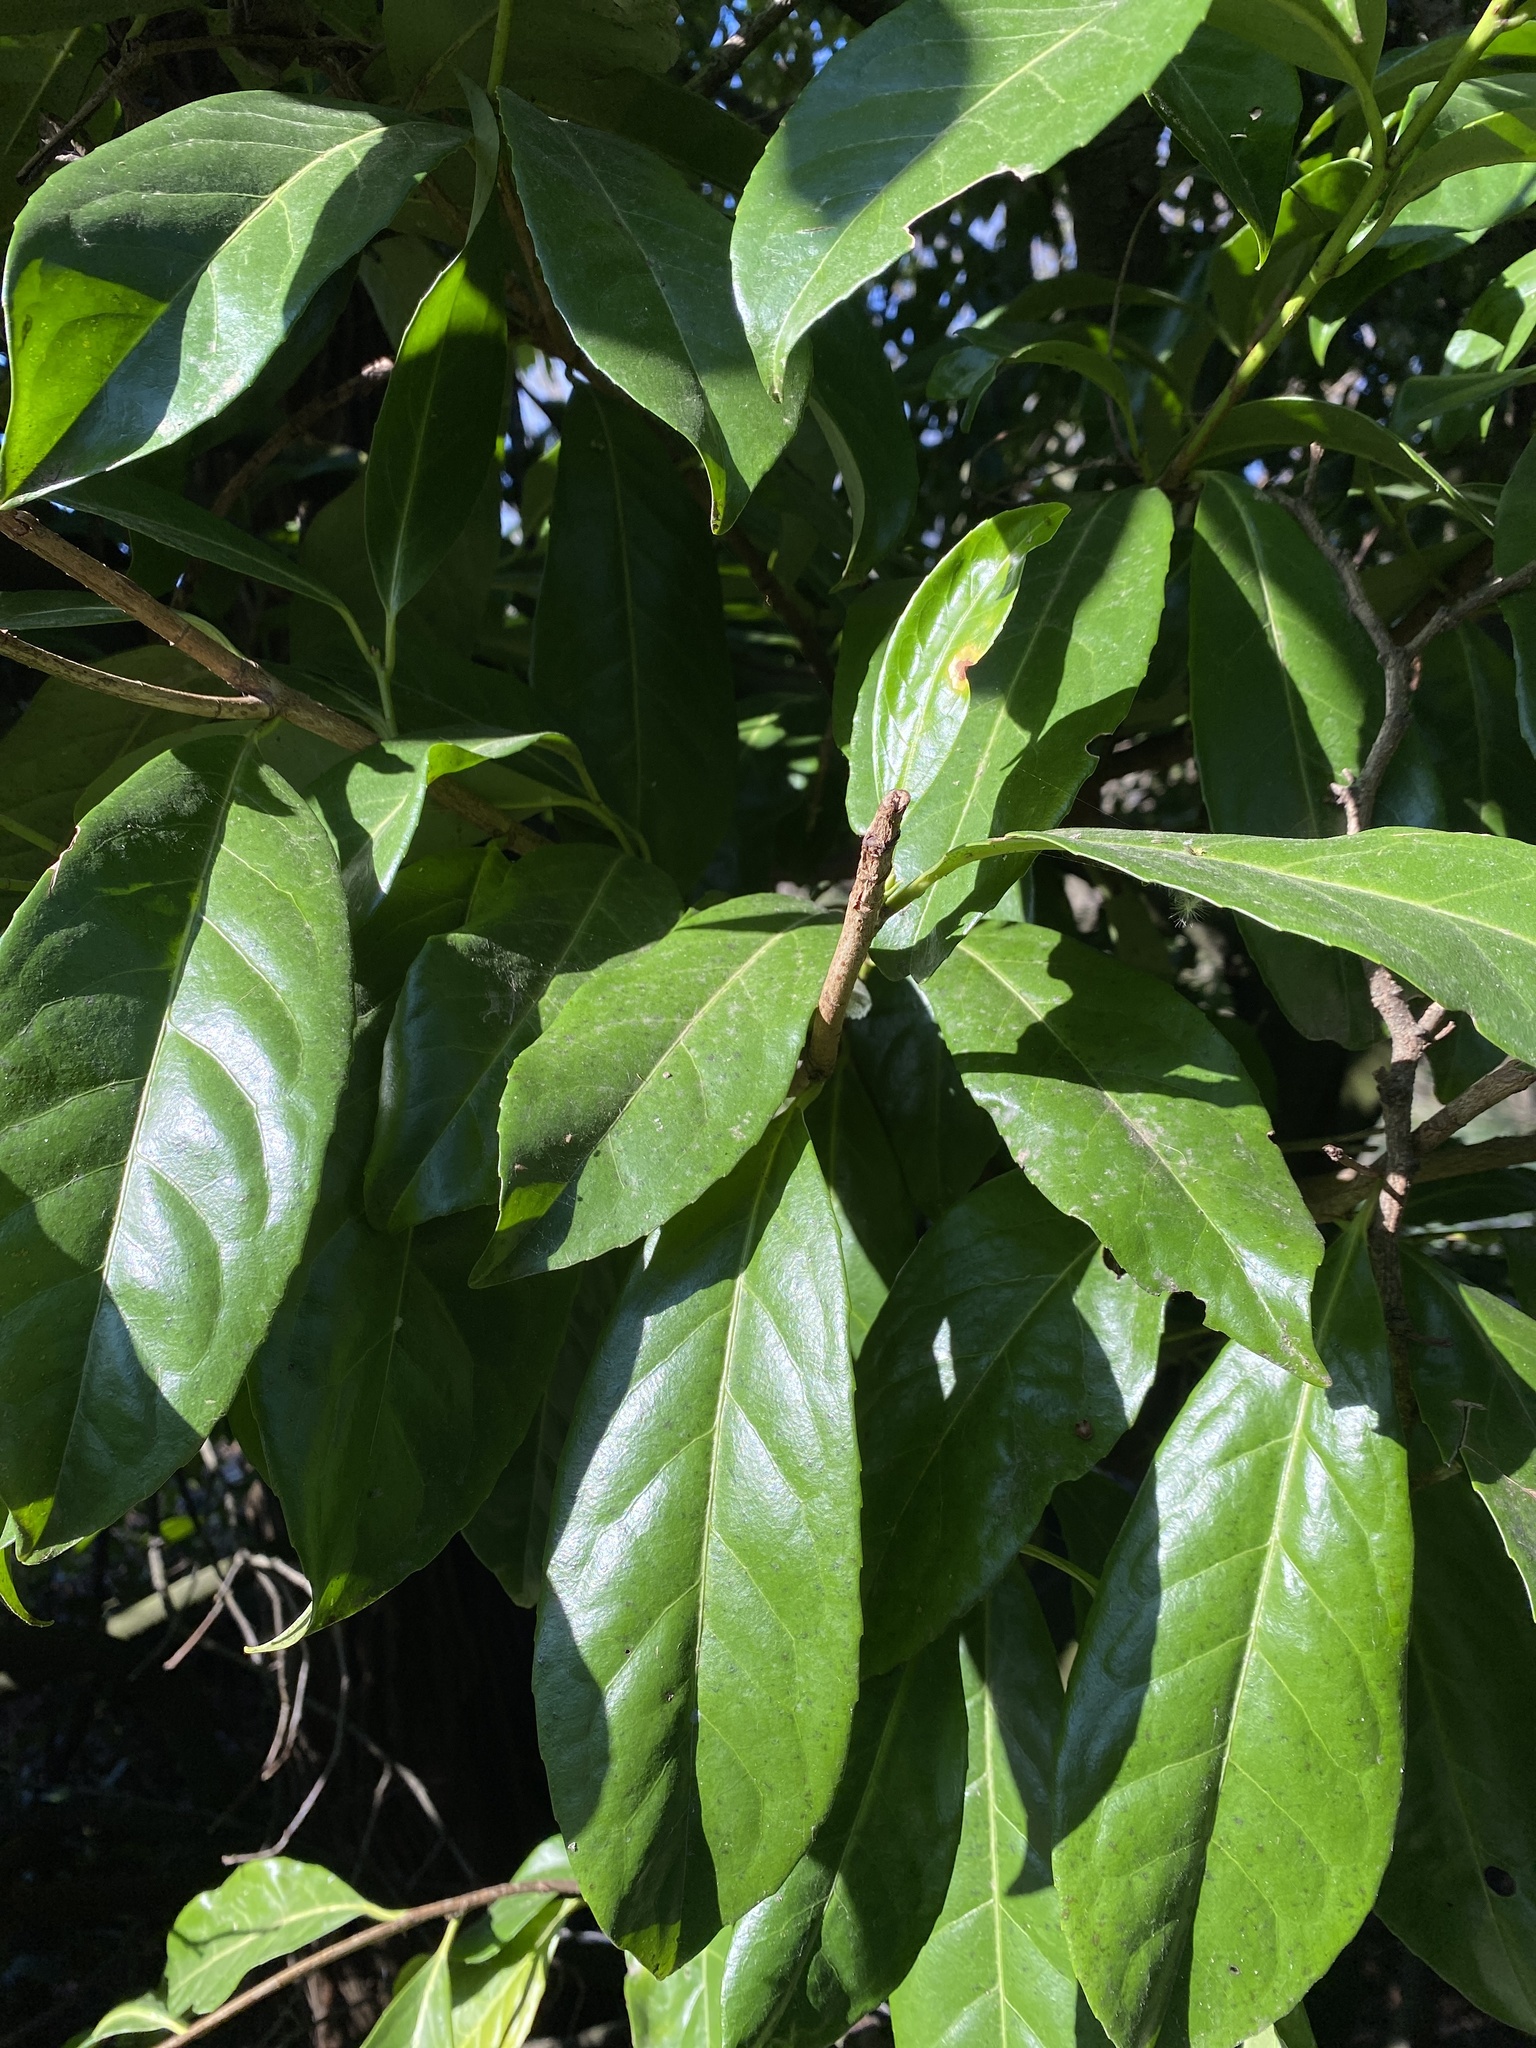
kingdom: Plantae
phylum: Tracheophyta
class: Magnoliopsida
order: Rosales
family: Rosaceae
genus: Prunus
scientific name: Prunus laurocerasus
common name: Cherry laurel
